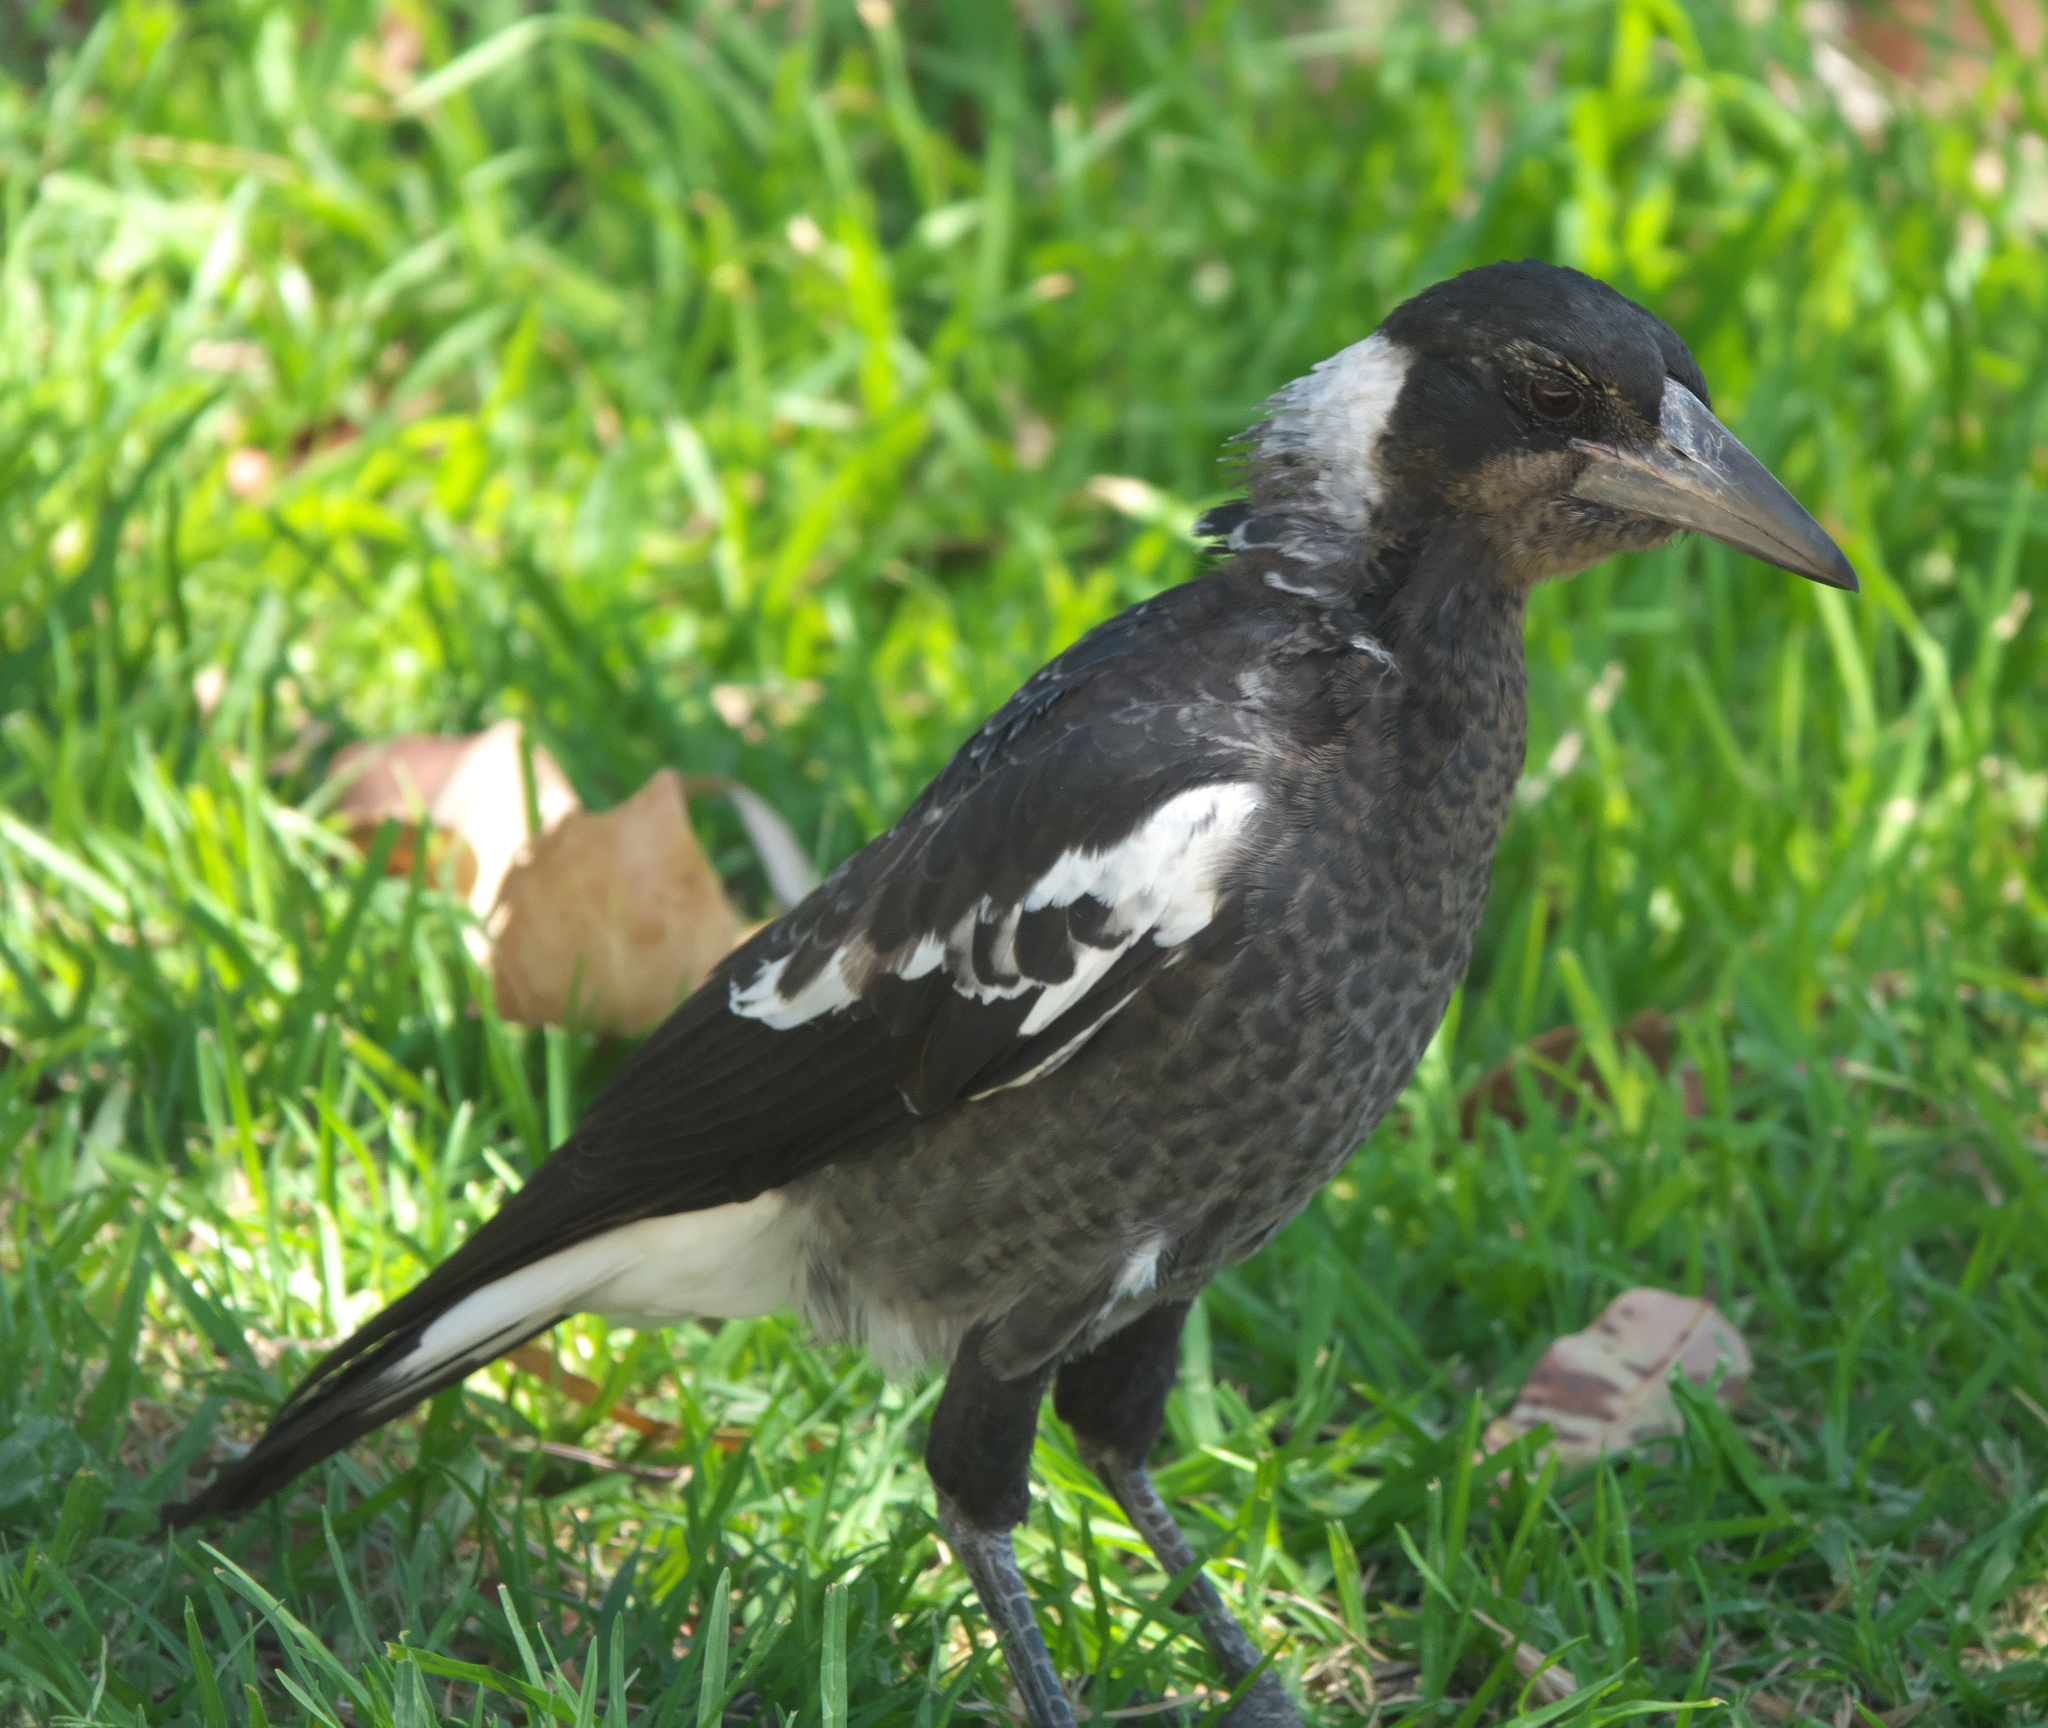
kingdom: Animalia
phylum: Chordata
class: Aves
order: Passeriformes
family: Cracticidae
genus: Gymnorhina
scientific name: Gymnorhina tibicen
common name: Australian magpie
